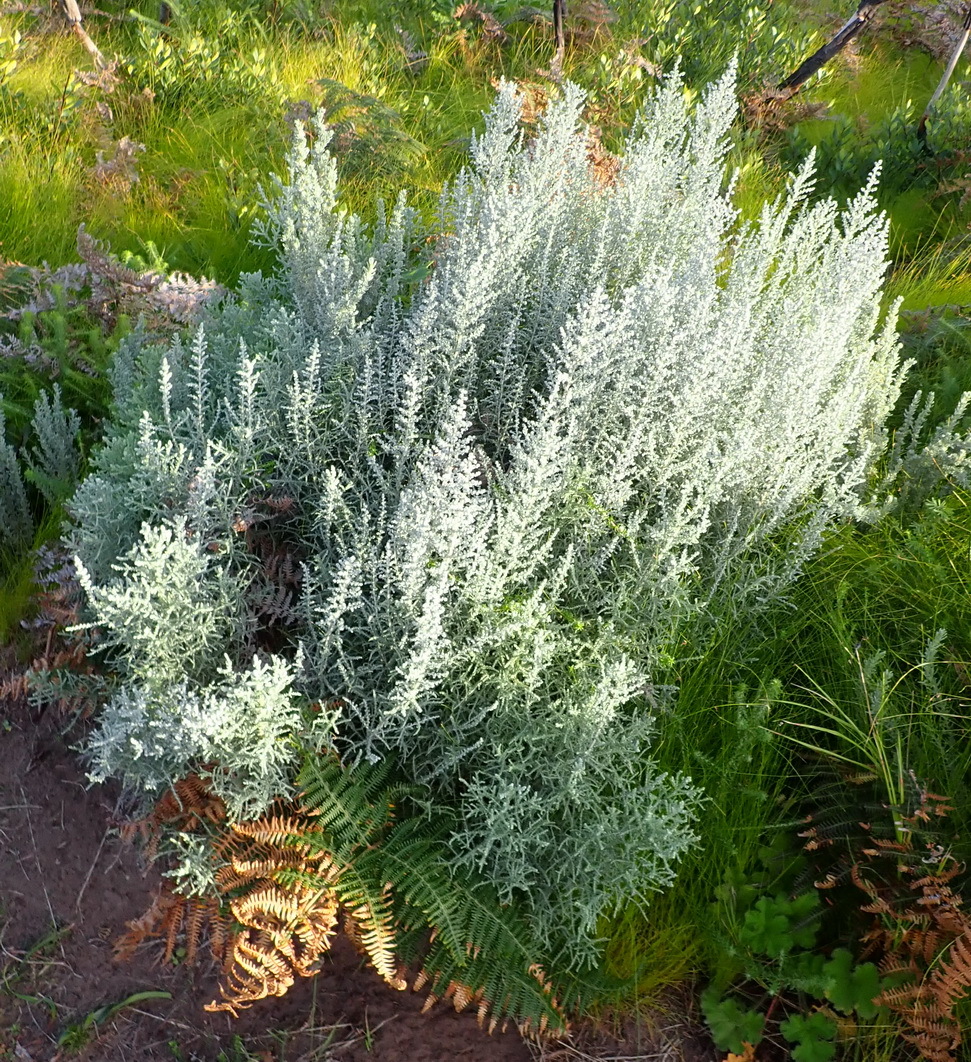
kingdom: Plantae
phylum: Tracheophyta
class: Magnoliopsida
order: Asterales
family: Asteraceae
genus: Seriphium
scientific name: Seriphium plumosum
